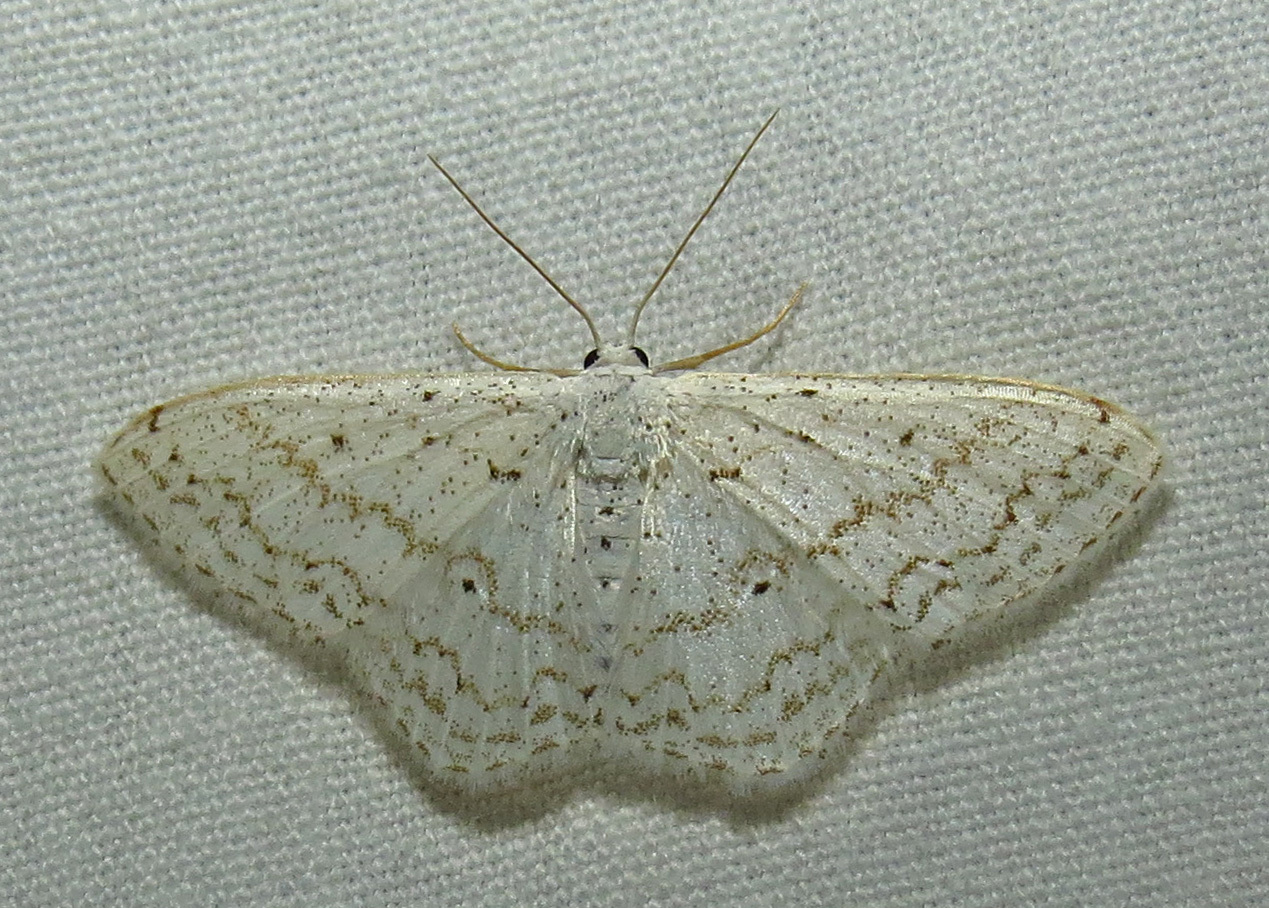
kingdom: Animalia
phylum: Arthropoda
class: Insecta
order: Lepidoptera
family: Geometridae
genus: Idaea
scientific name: Idaea tacturata
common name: Dot-lined wave
